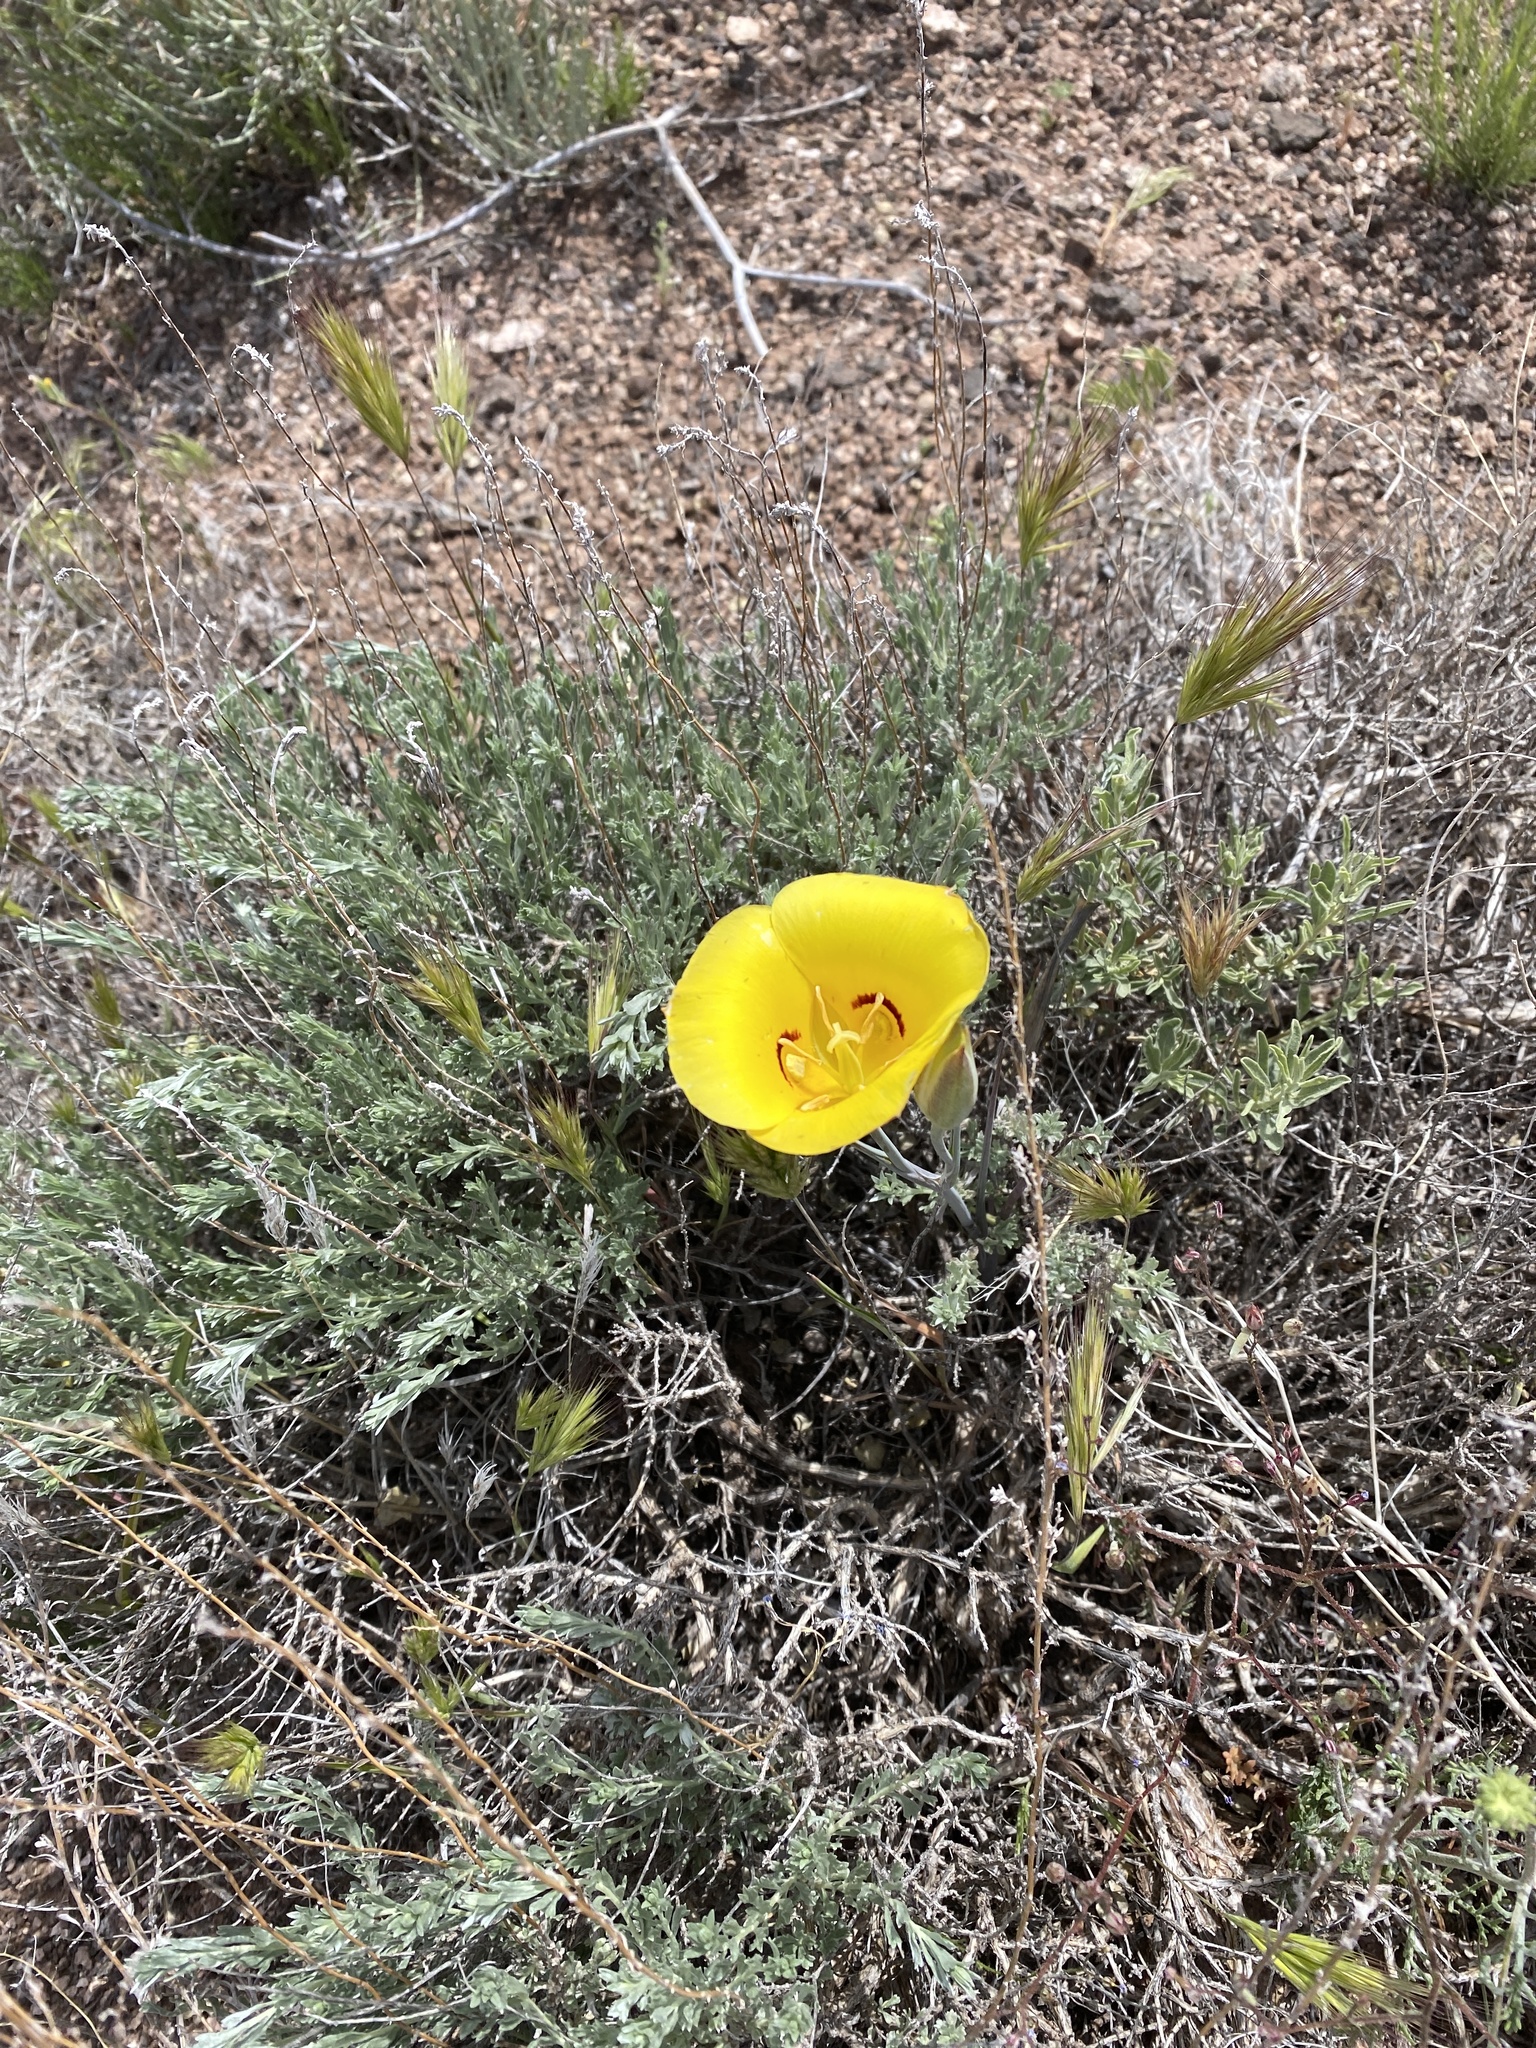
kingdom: Plantae
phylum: Tracheophyta
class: Liliopsida
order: Liliales
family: Liliaceae
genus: Calochortus
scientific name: Calochortus aureus
